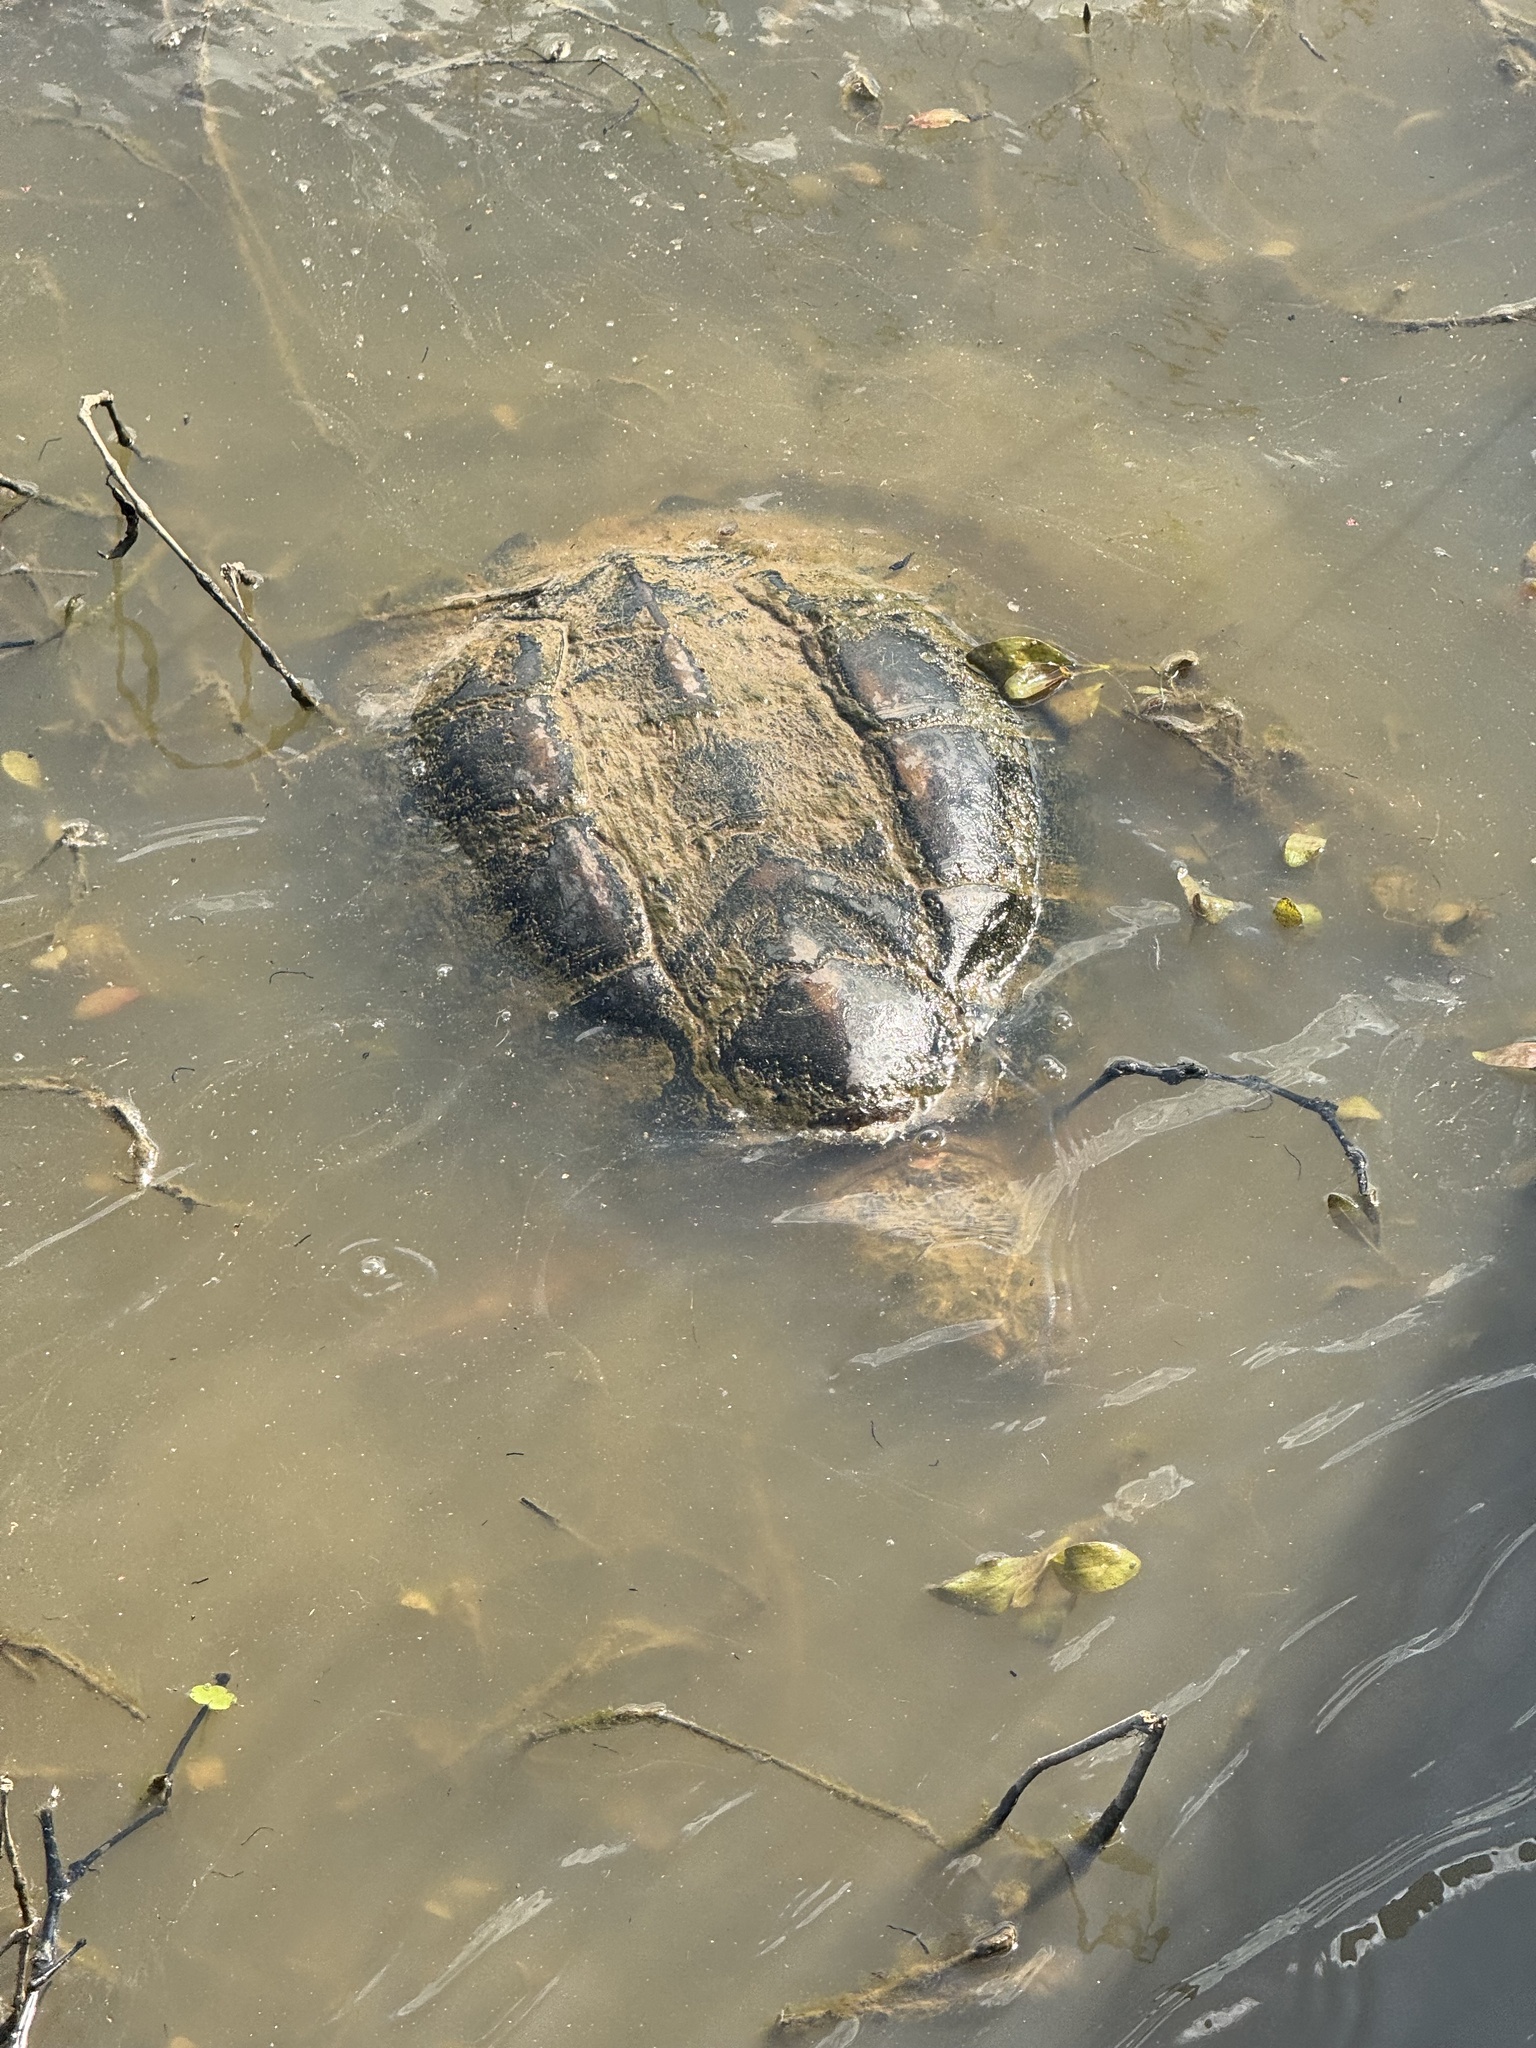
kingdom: Animalia
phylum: Chordata
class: Testudines
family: Chelydridae
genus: Chelydra
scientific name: Chelydra serpentina
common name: Common snapping turtle
